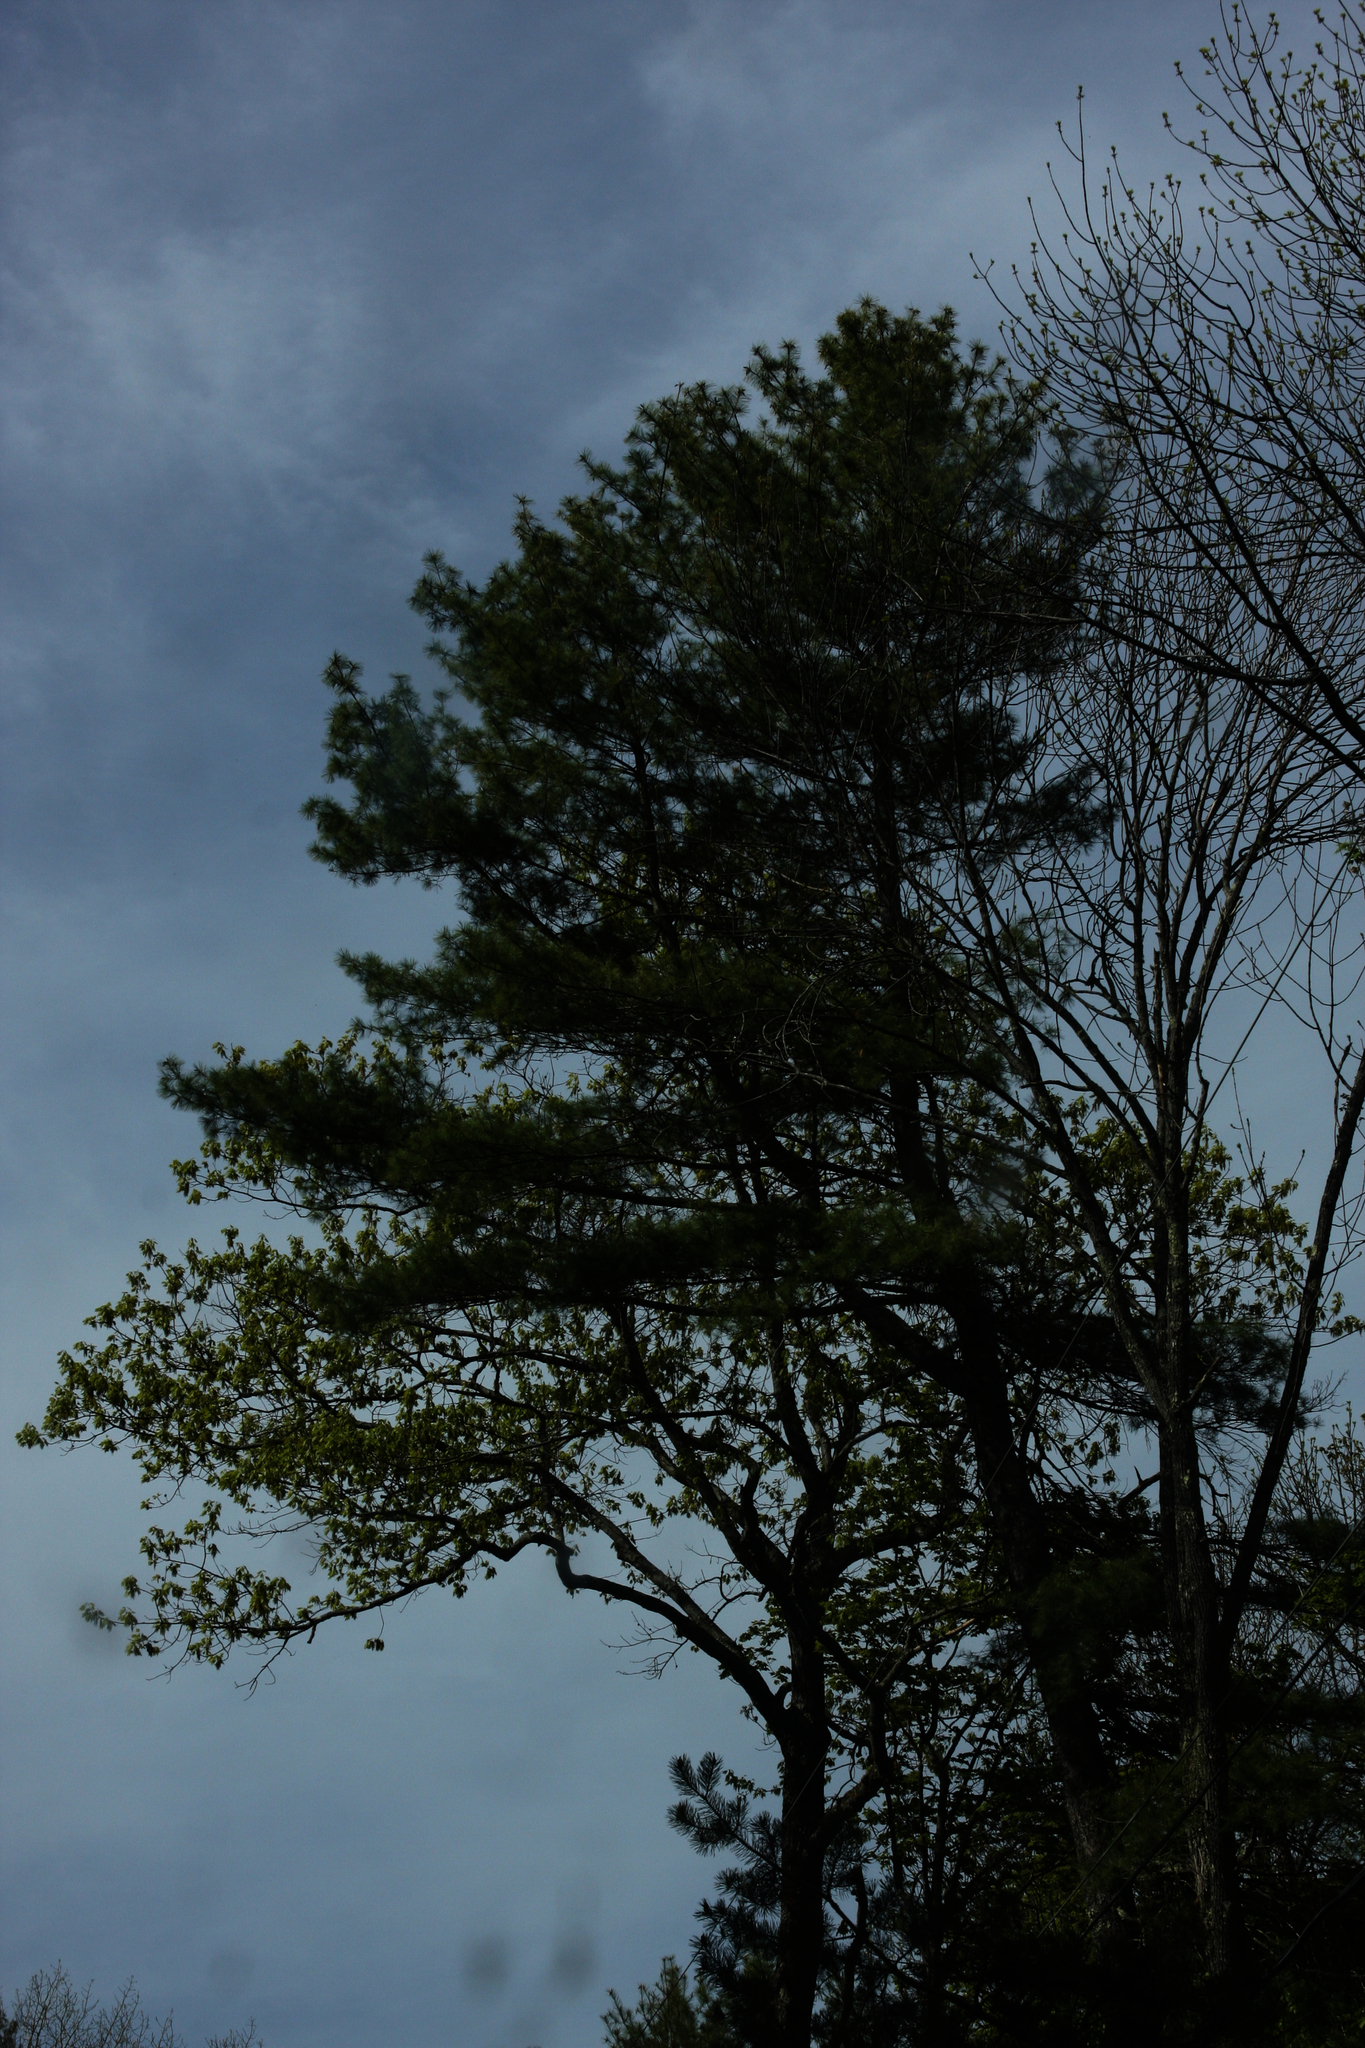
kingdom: Plantae
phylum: Tracheophyta
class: Pinopsida
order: Pinales
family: Pinaceae
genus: Pinus
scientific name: Pinus strobus
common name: Weymouth pine
